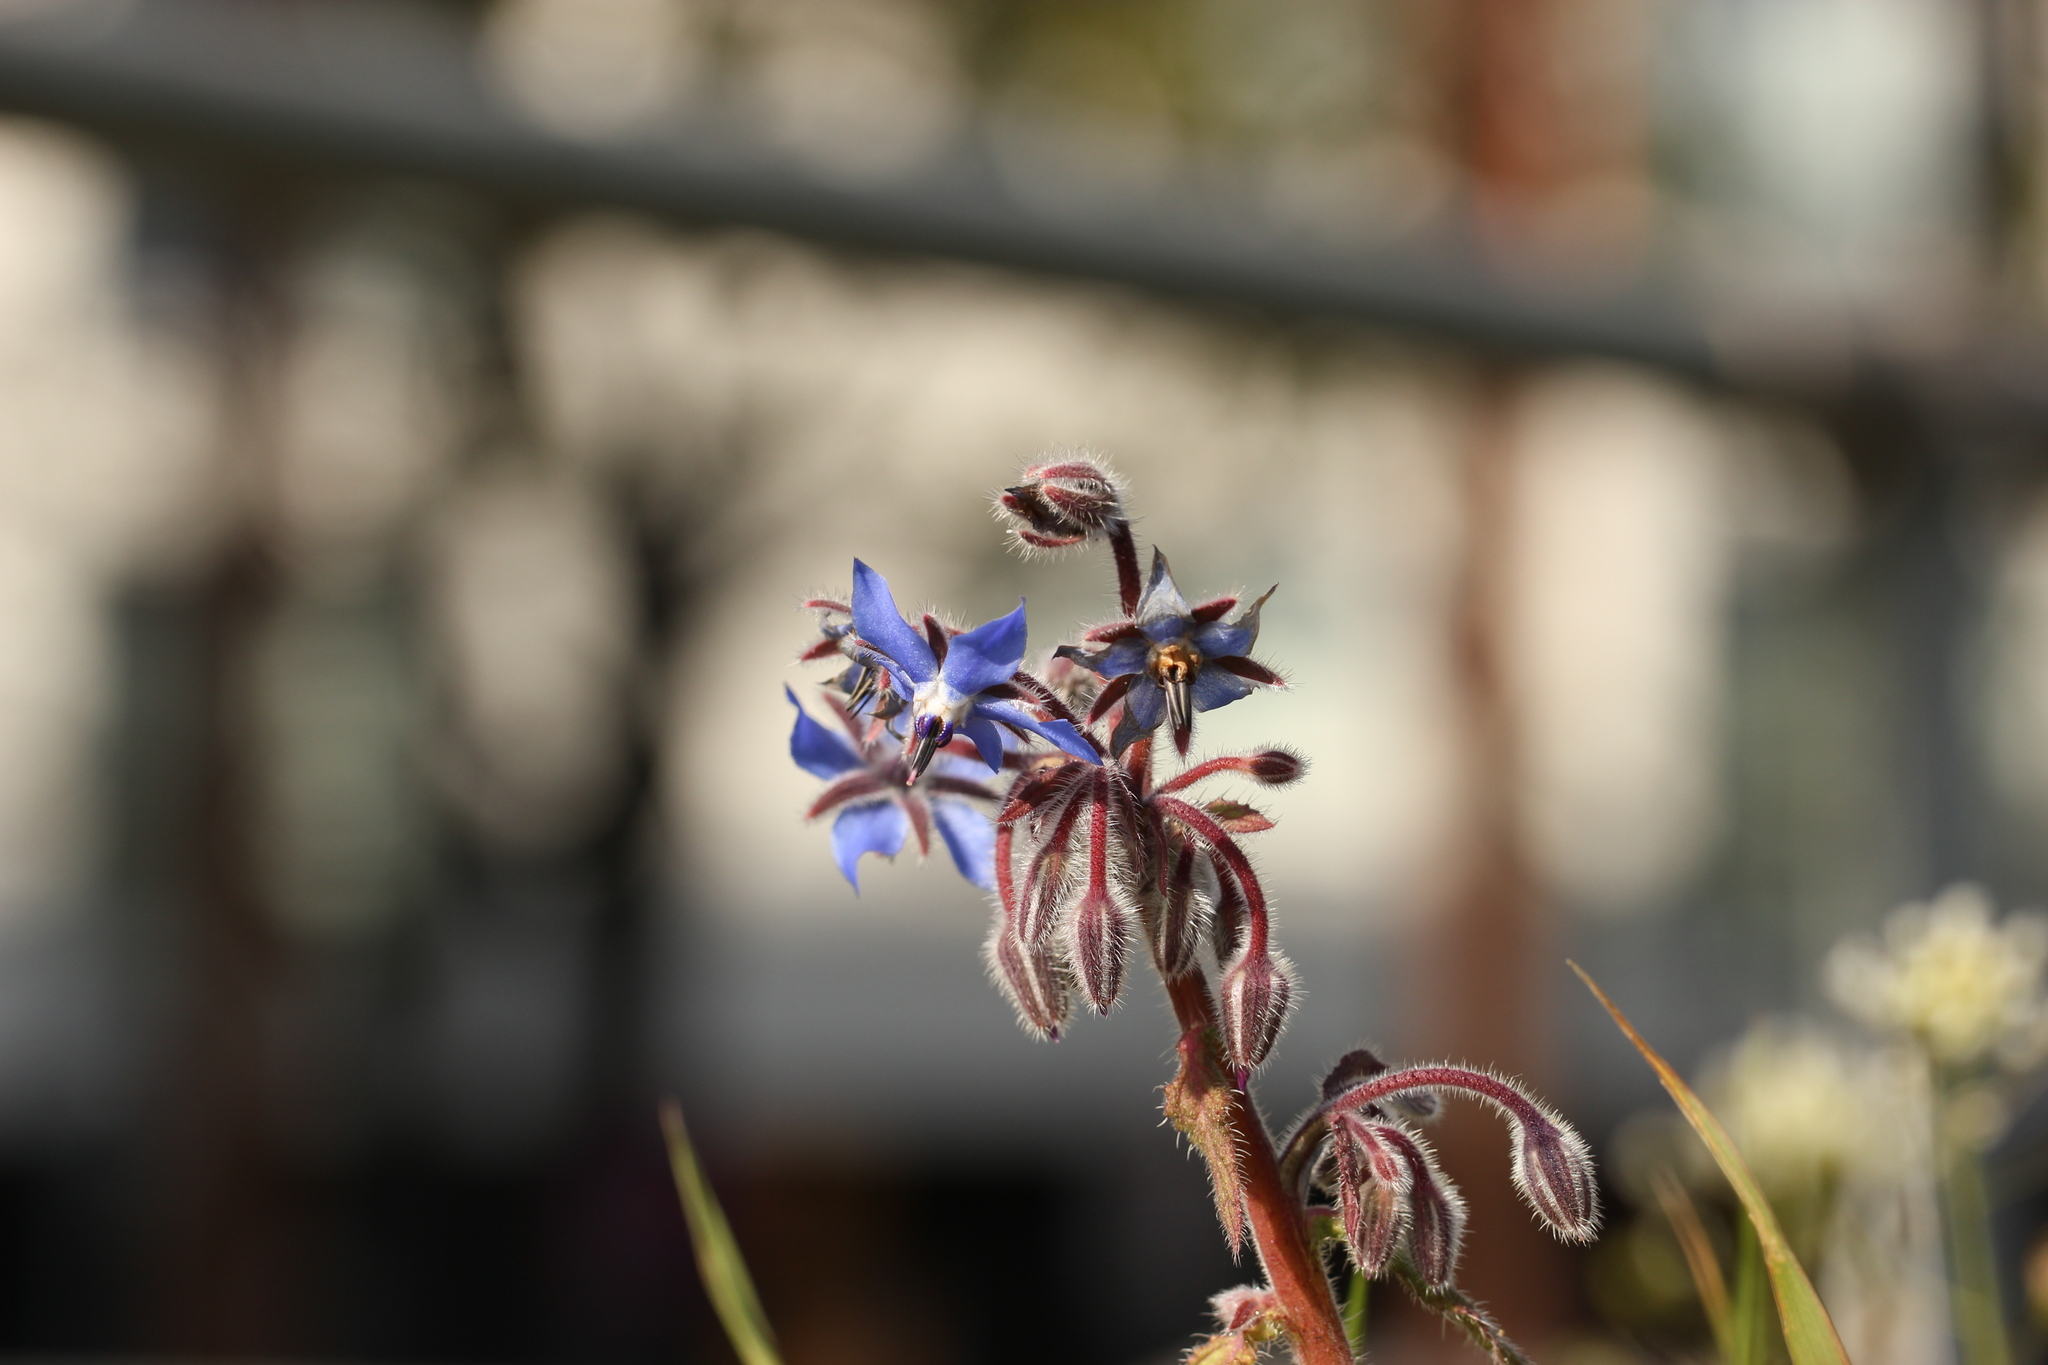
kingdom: Plantae
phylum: Tracheophyta
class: Magnoliopsida
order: Boraginales
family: Boraginaceae
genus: Borago
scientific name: Borago officinalis
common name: Borage
